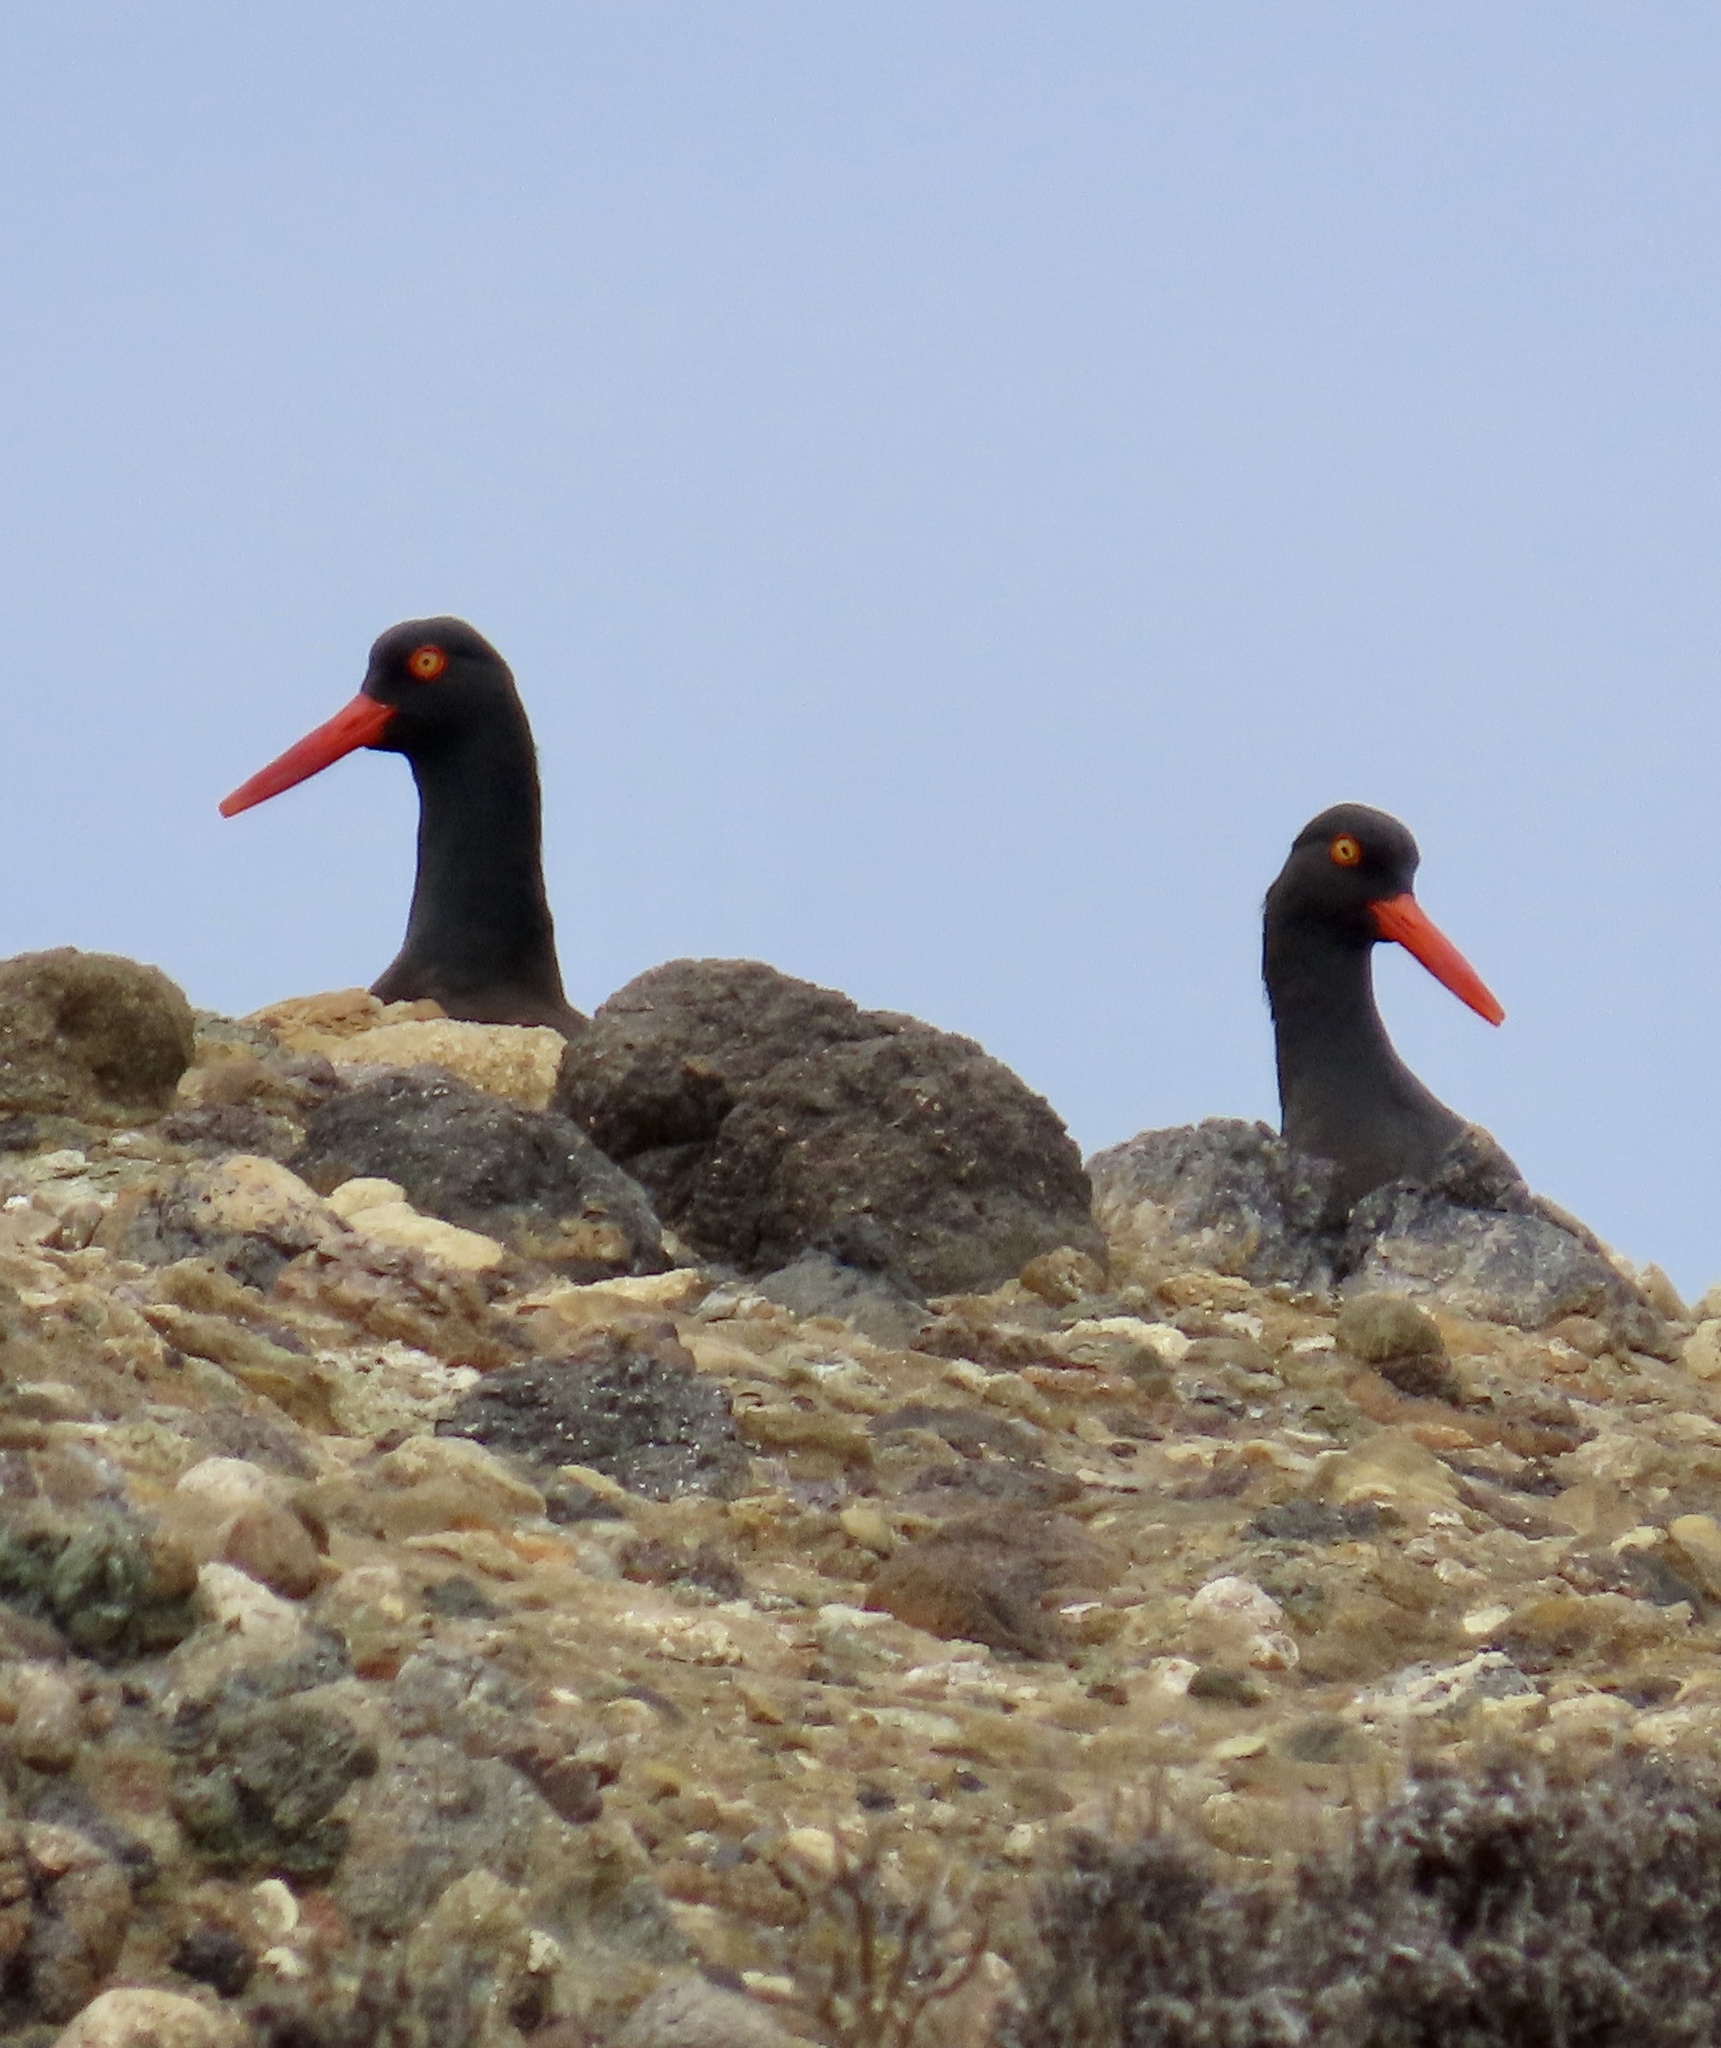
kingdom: Animalia
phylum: Chordata
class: Aves
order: Charadriiformes
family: Haematopodidae
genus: Haematopus
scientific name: Haematopus bachmani
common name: Black oystercatcher
